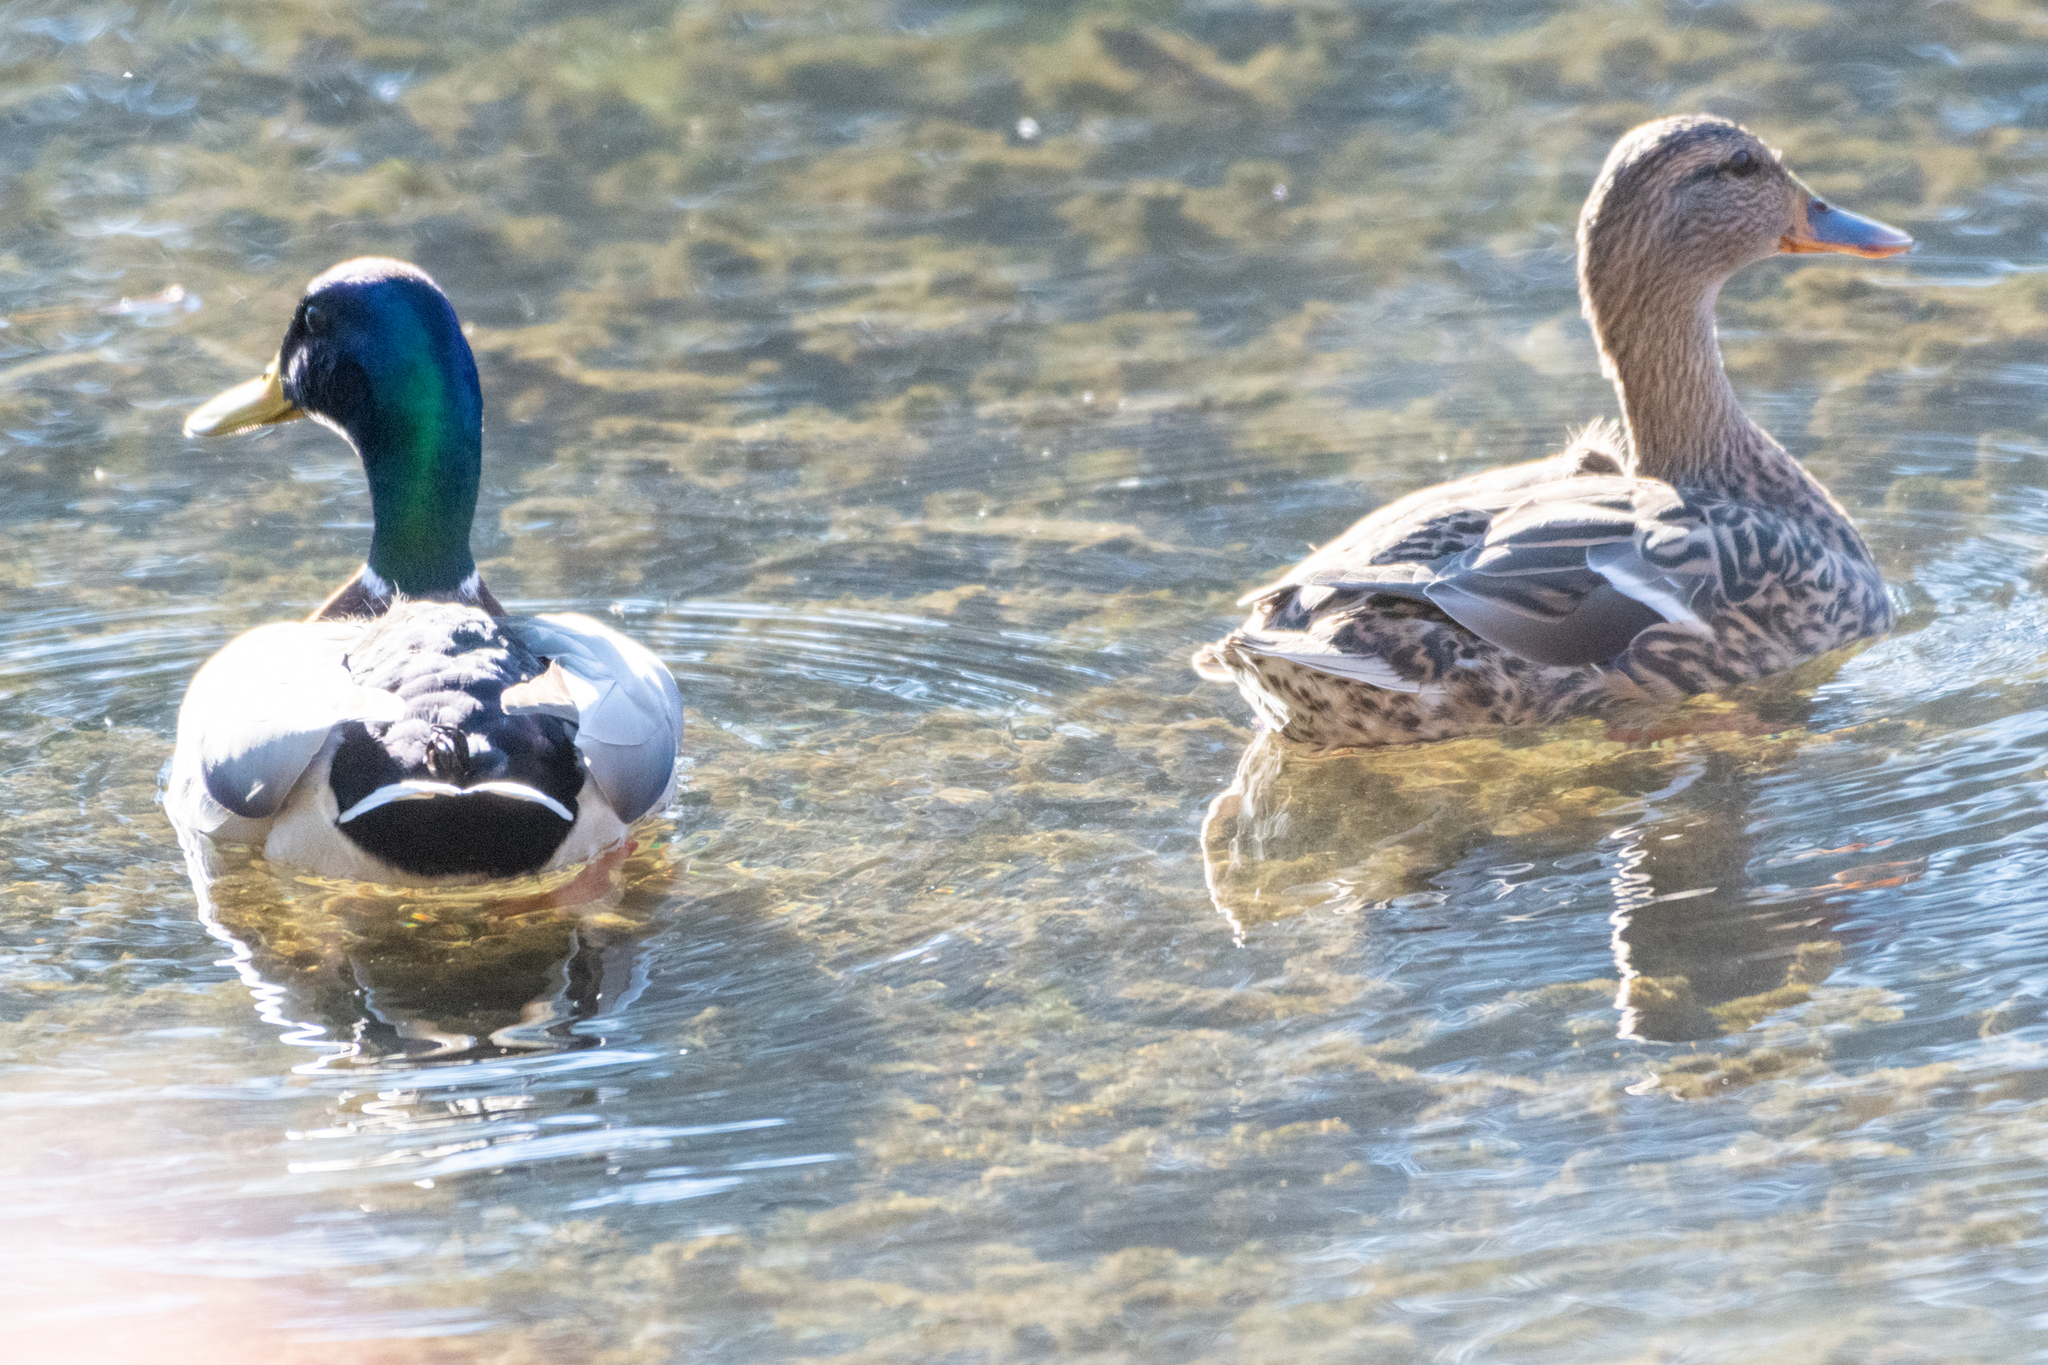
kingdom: Animalia
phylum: Chordata
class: Aves
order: Anseriformes
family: Anatidae
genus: Anas
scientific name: Anas platyrhynchos
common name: Mallard
